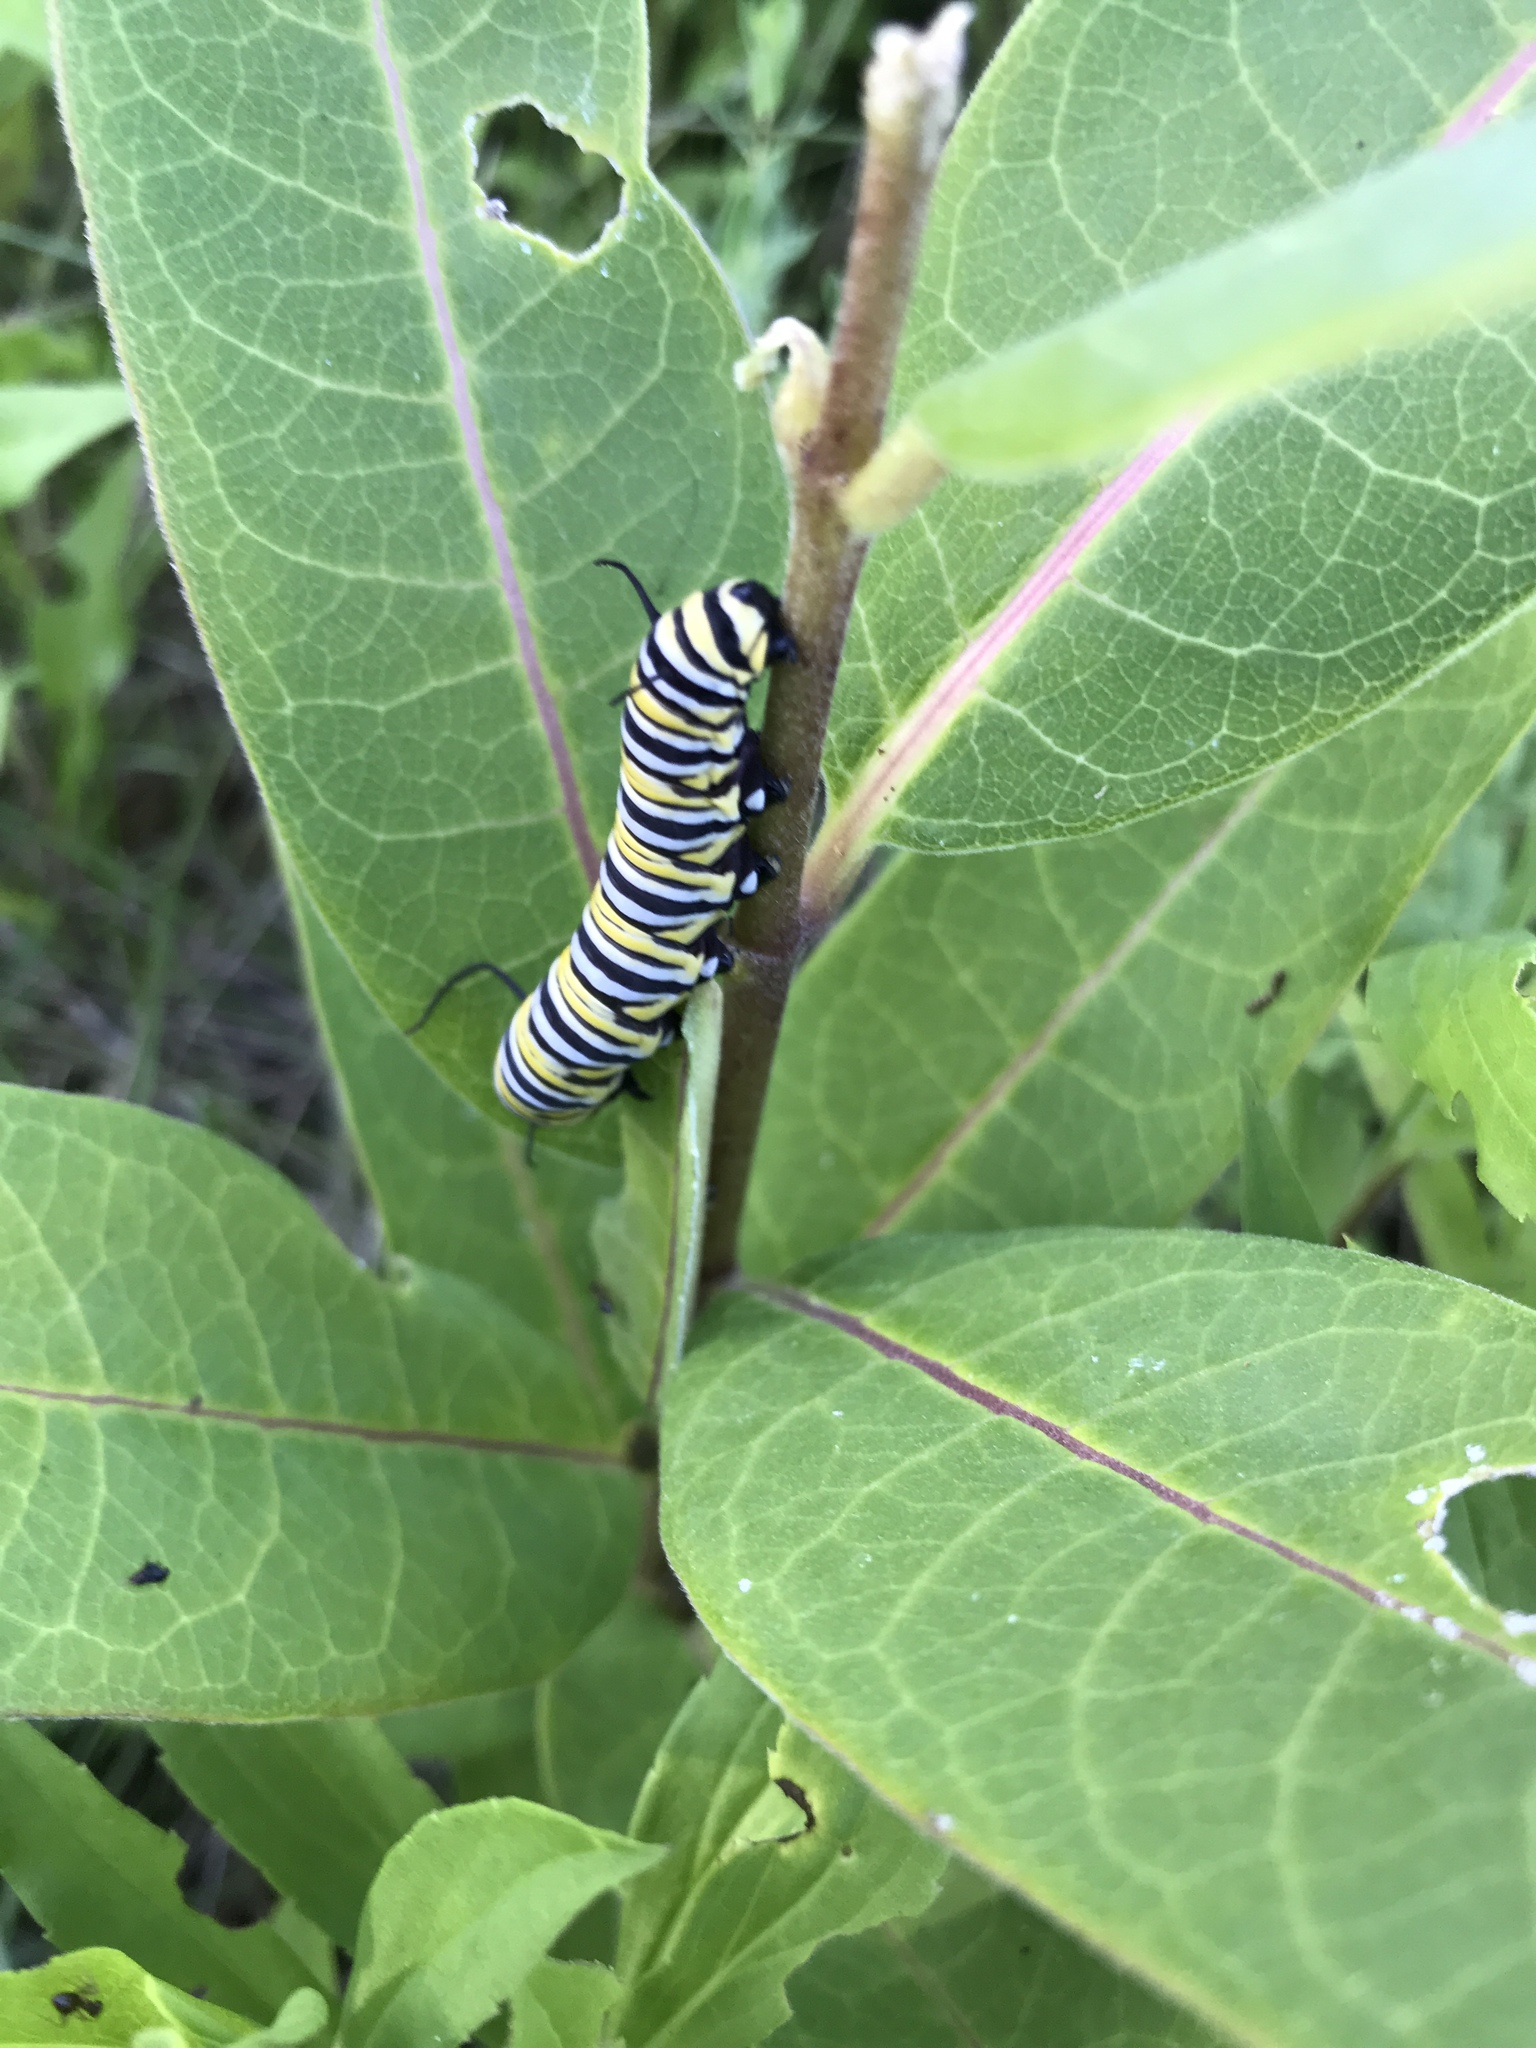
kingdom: Animalia
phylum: Arthropoda
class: Insecta
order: Lepidoptera
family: Nymphalidae
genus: Danaus
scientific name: Danaus plexippus
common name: Monarch
